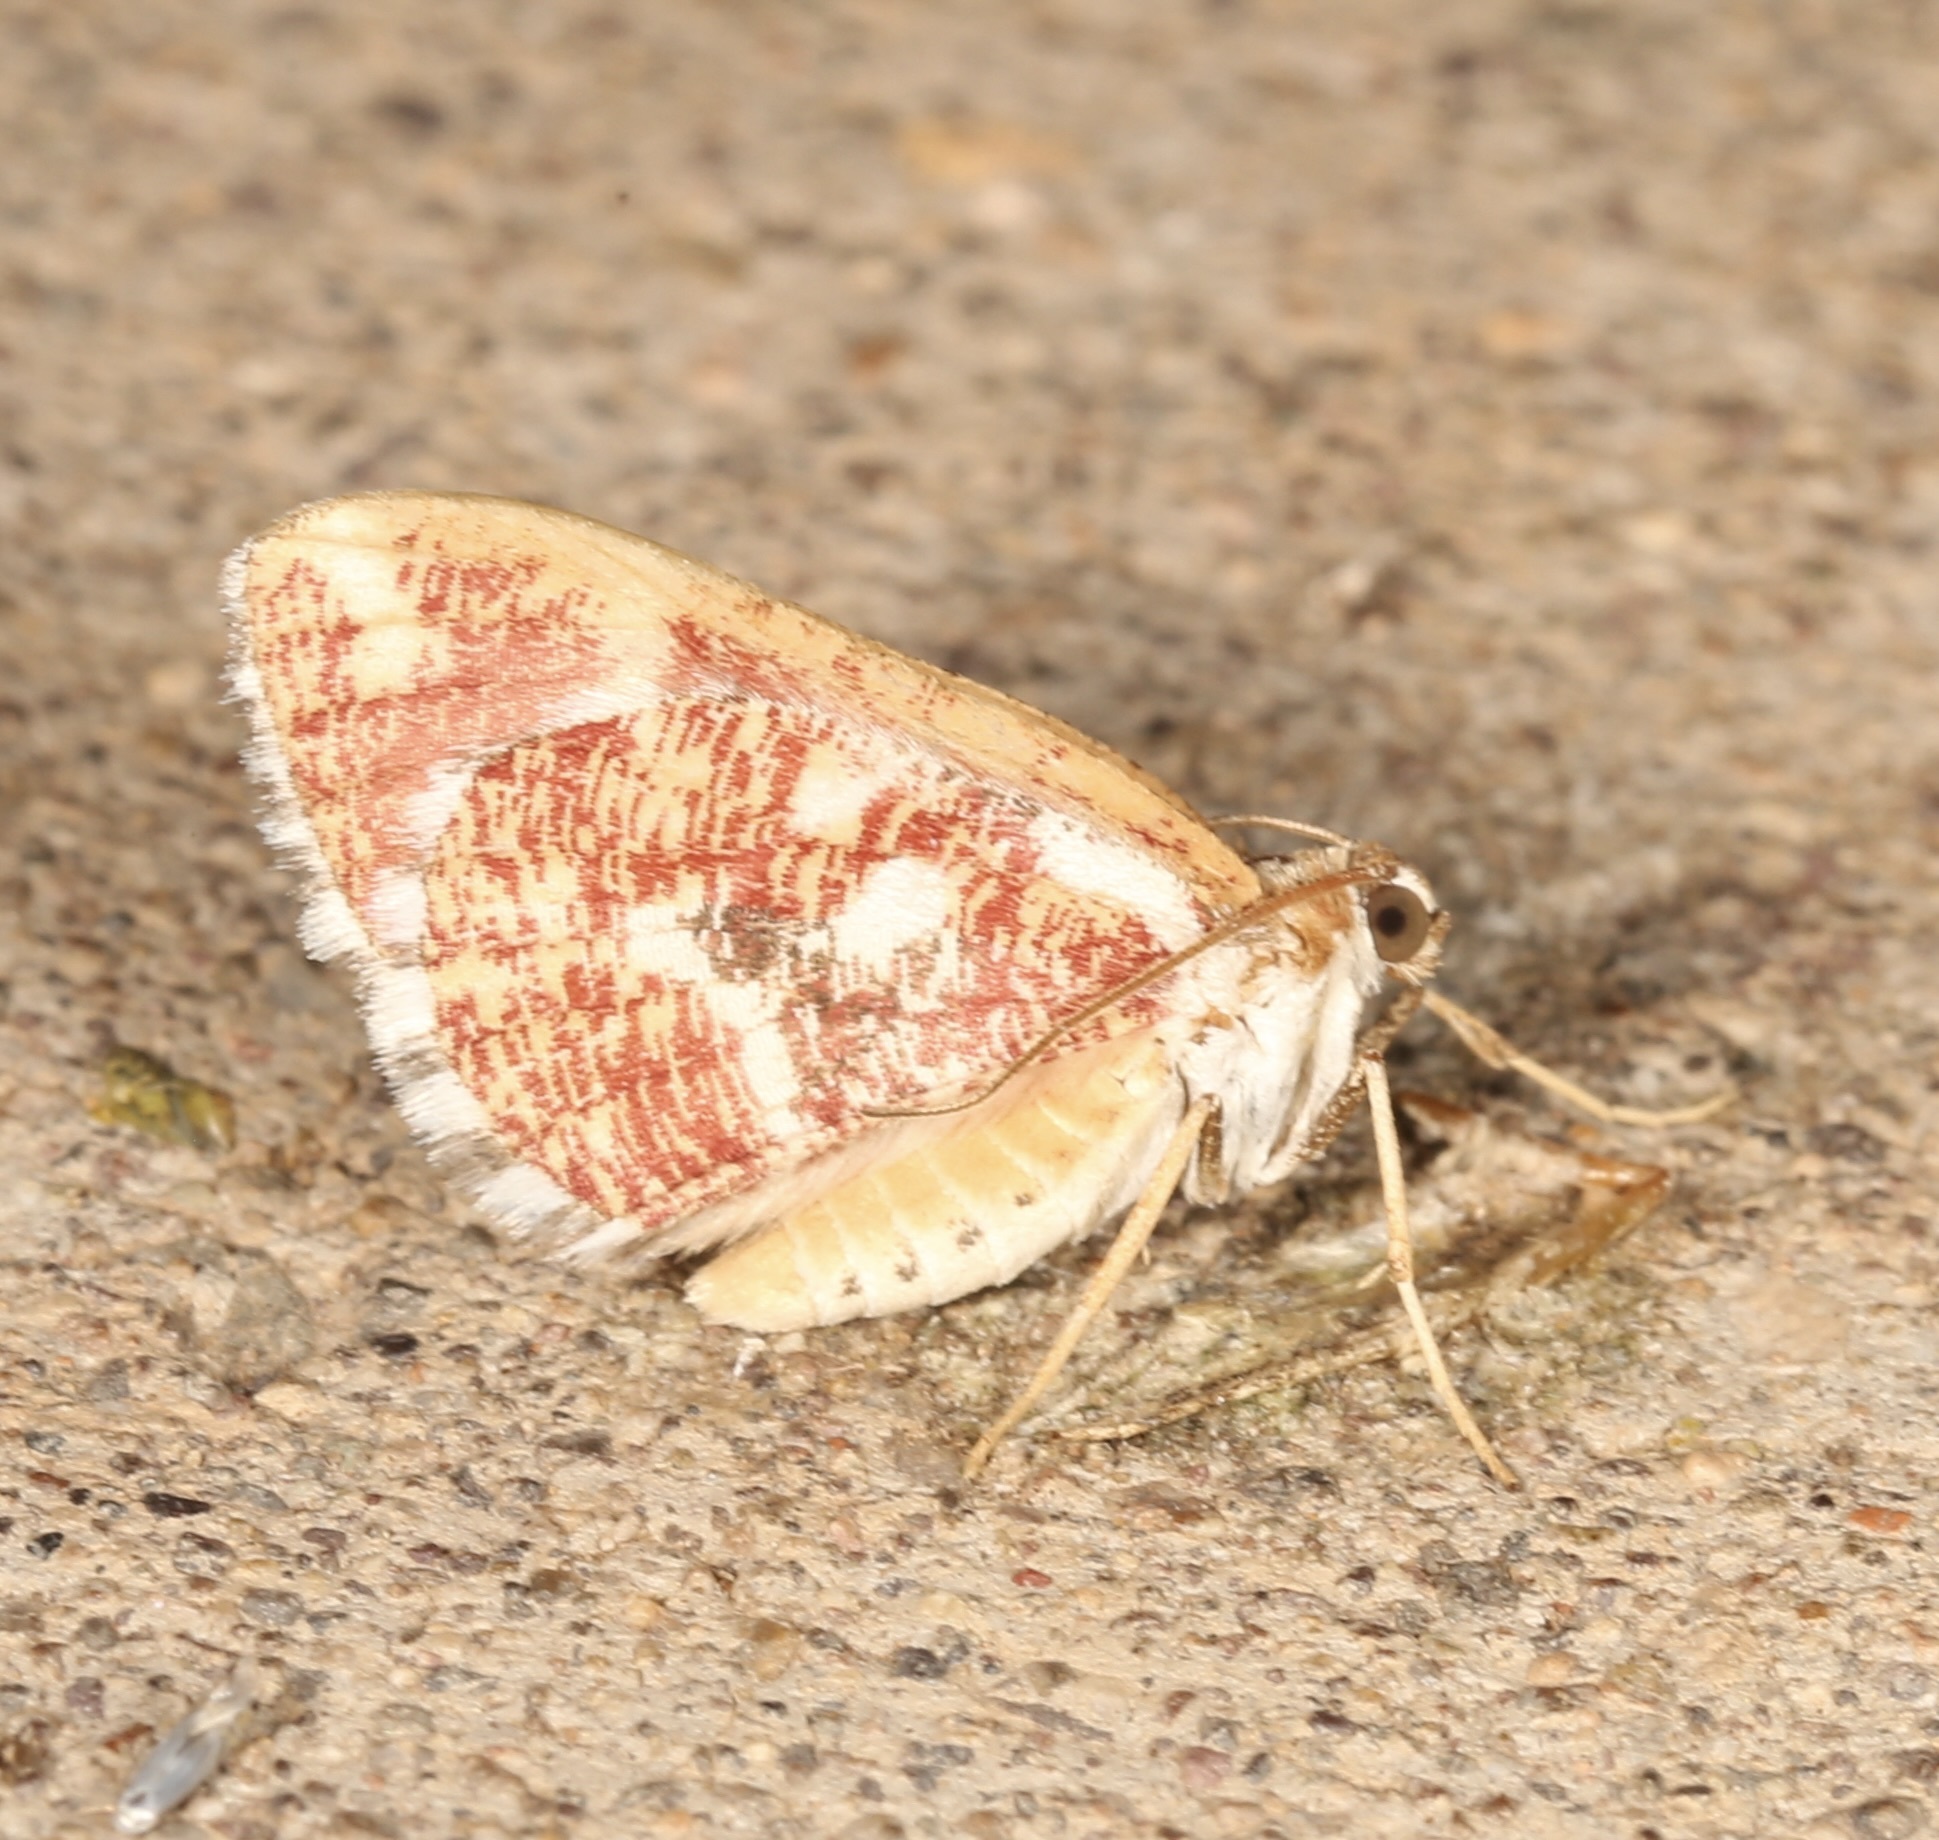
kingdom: Animalia
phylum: Arthropoda
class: Insecta
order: Lepidoptera
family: Geometridae
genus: Stamnodes
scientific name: Stamnodes formosata
